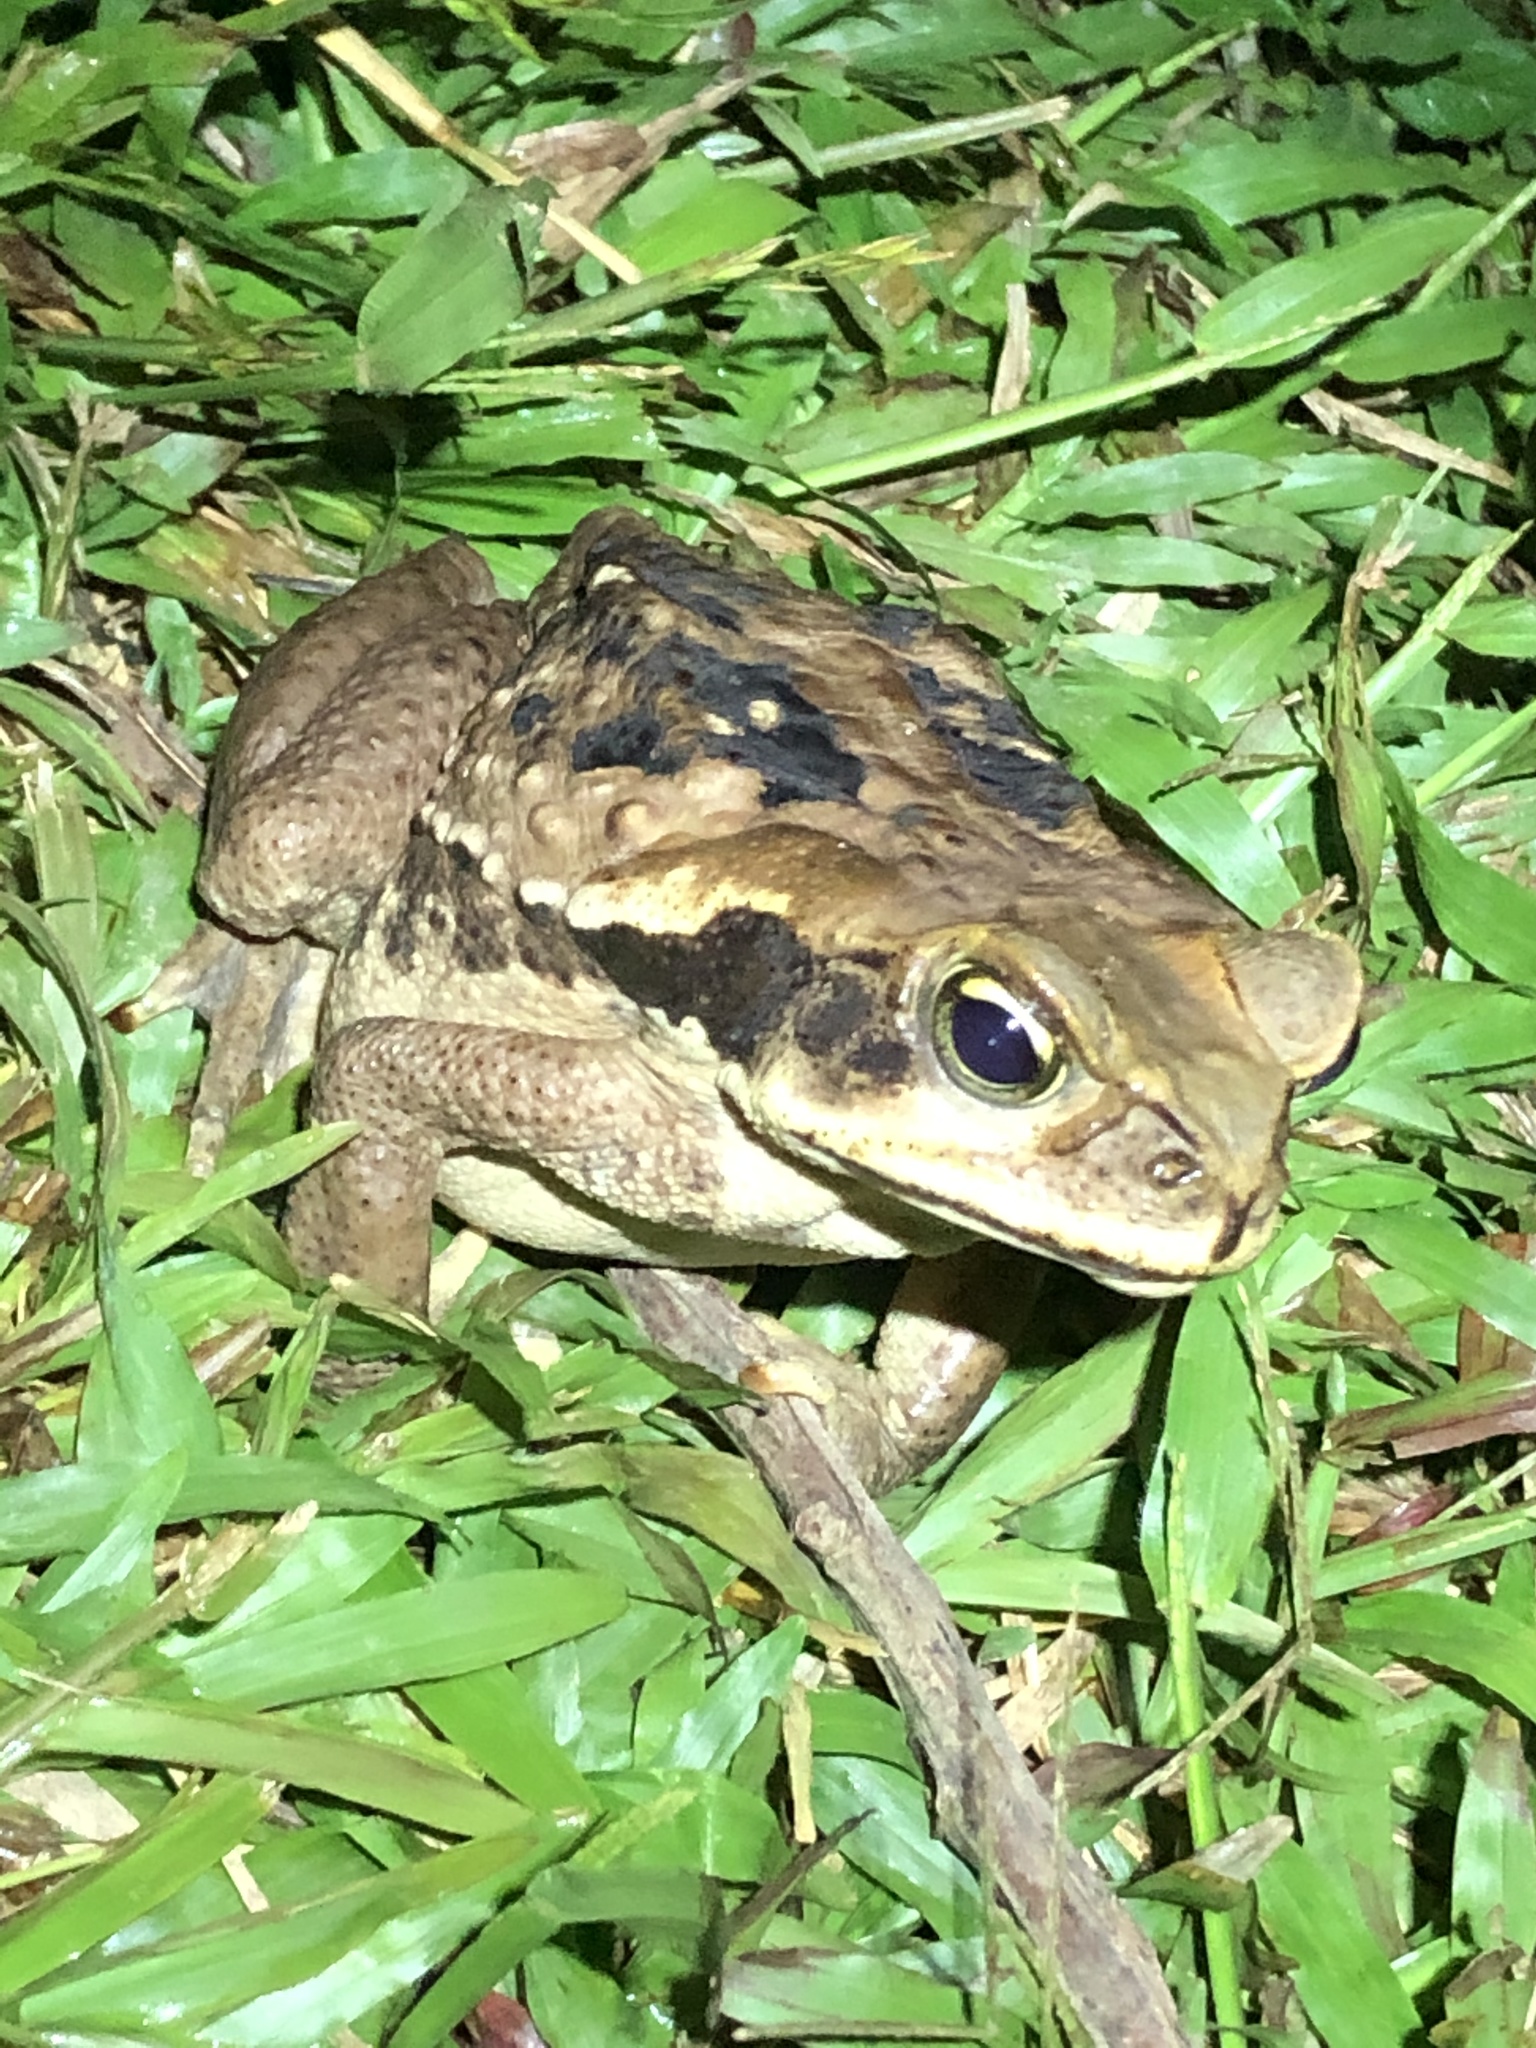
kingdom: Animalia
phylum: Chordata
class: Amphibia
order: Anura
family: Bufonidae
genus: Rhinella
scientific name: Rhinella marina
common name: Cane toad
